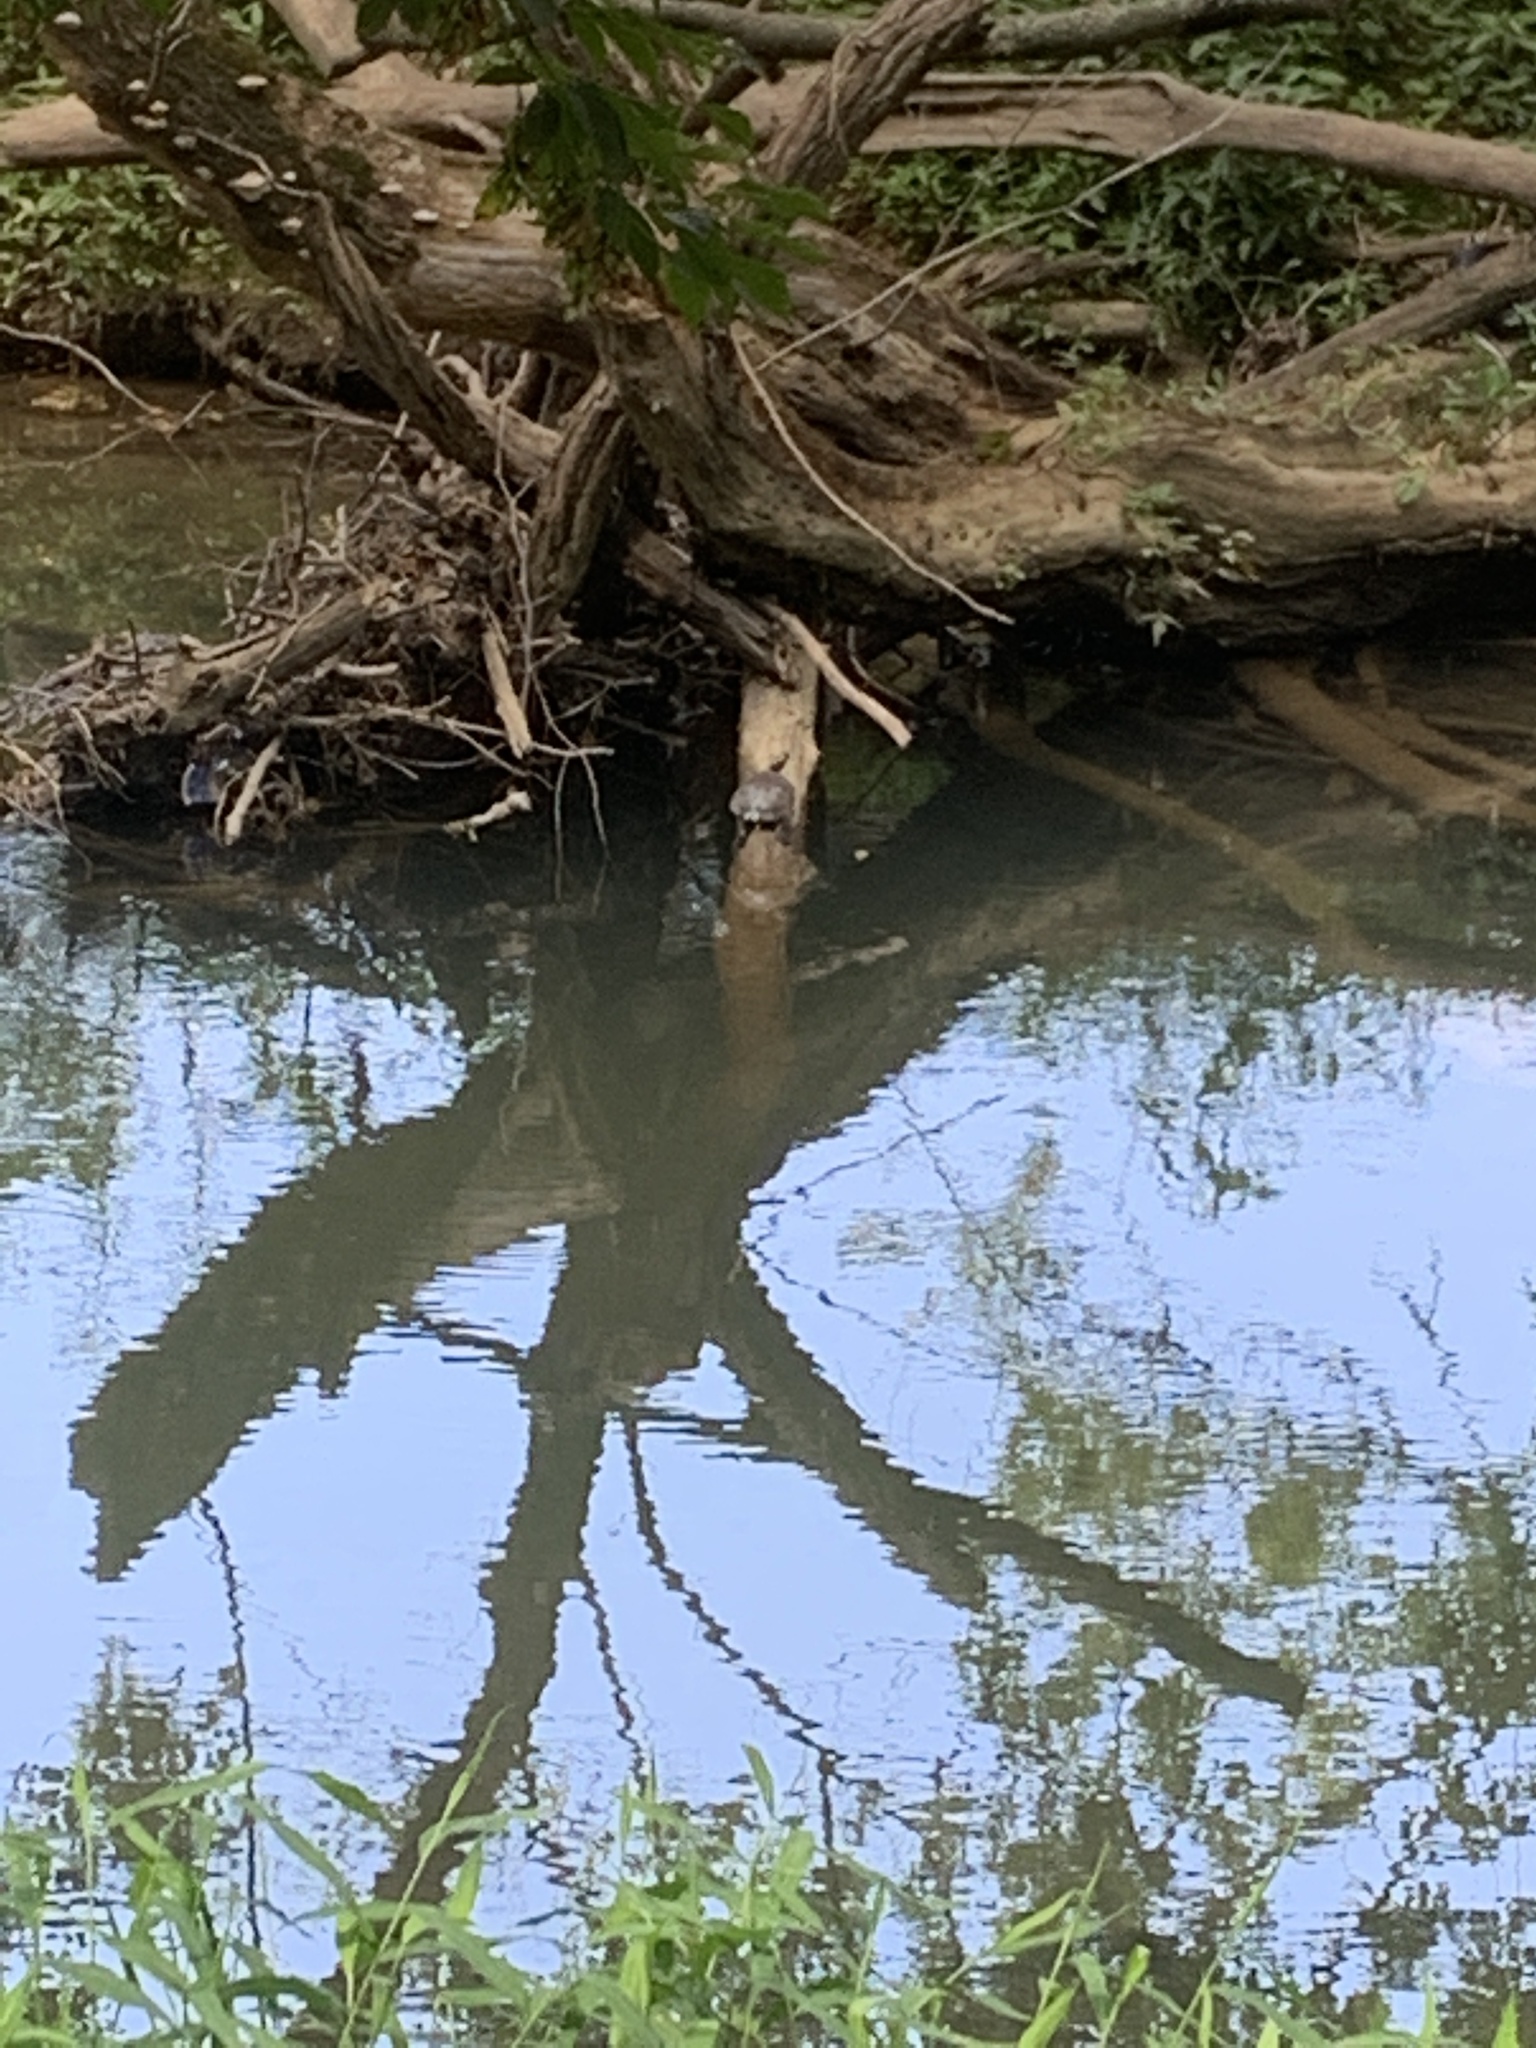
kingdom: Animalia
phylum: Chordata
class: Testudines
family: Emydidae
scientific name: Emydidae
